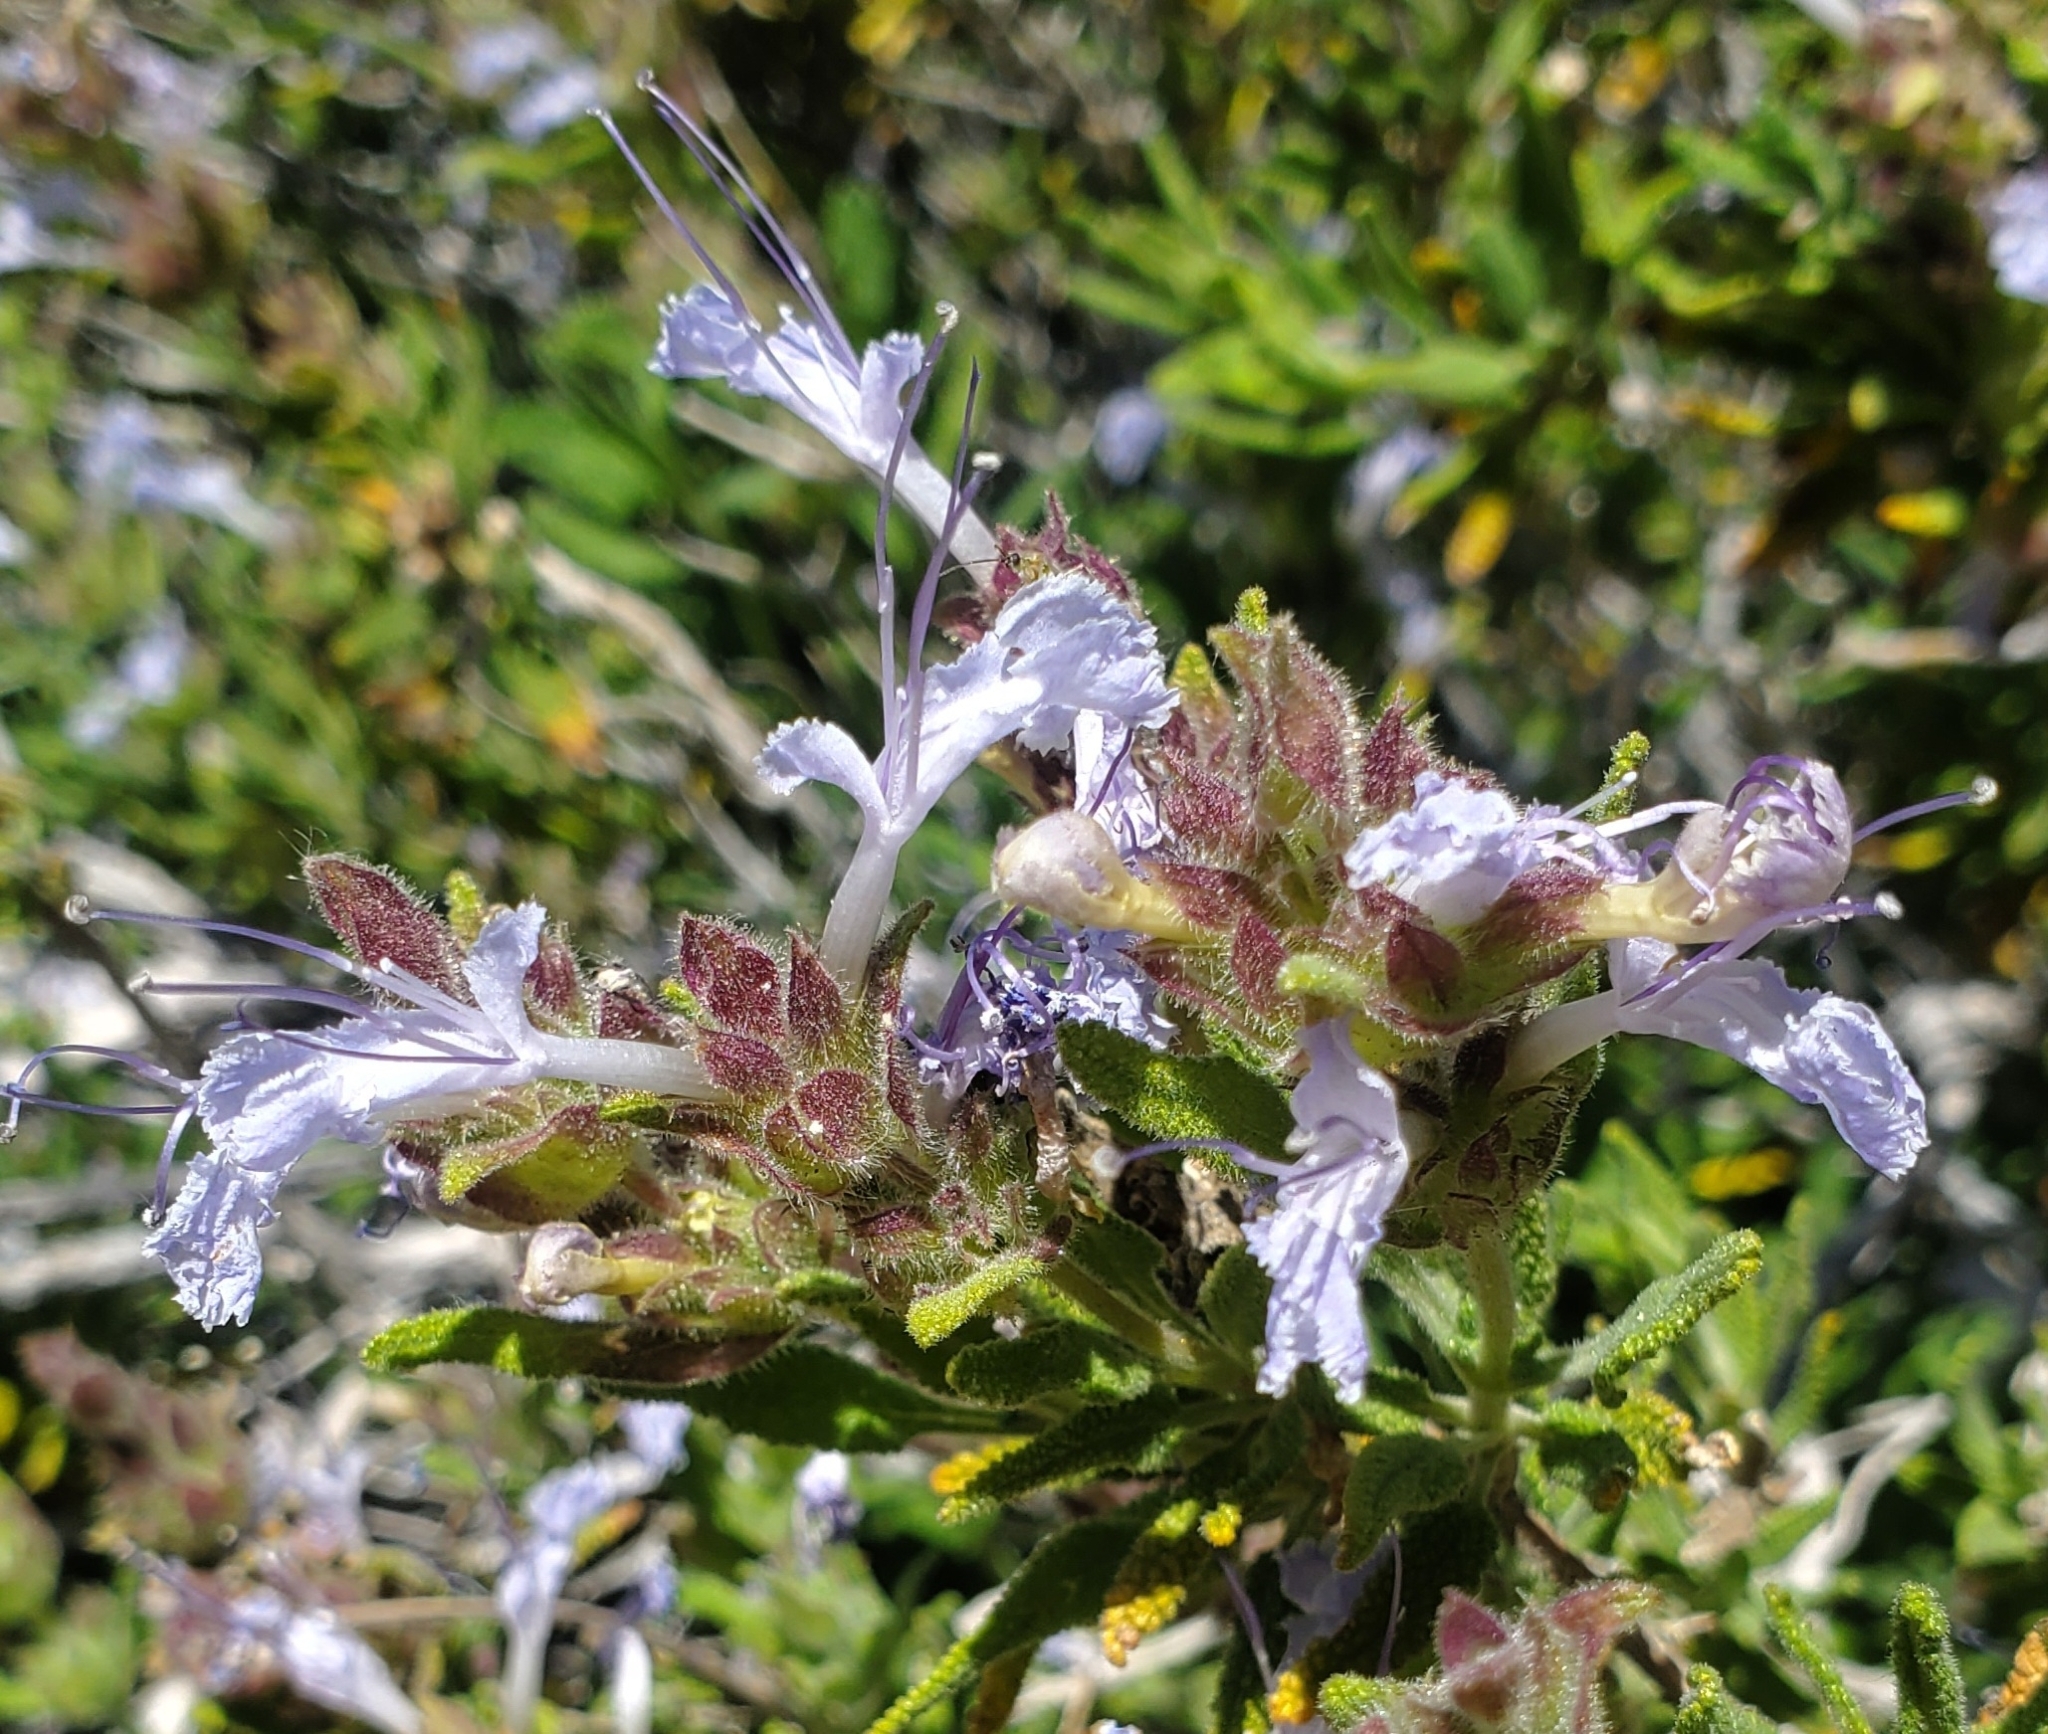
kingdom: Plantae
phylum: Tracheophyta
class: Magnoliopsida
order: Lamiales
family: Lamiaceae
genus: Salvia
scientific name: Salvia eremostachya
